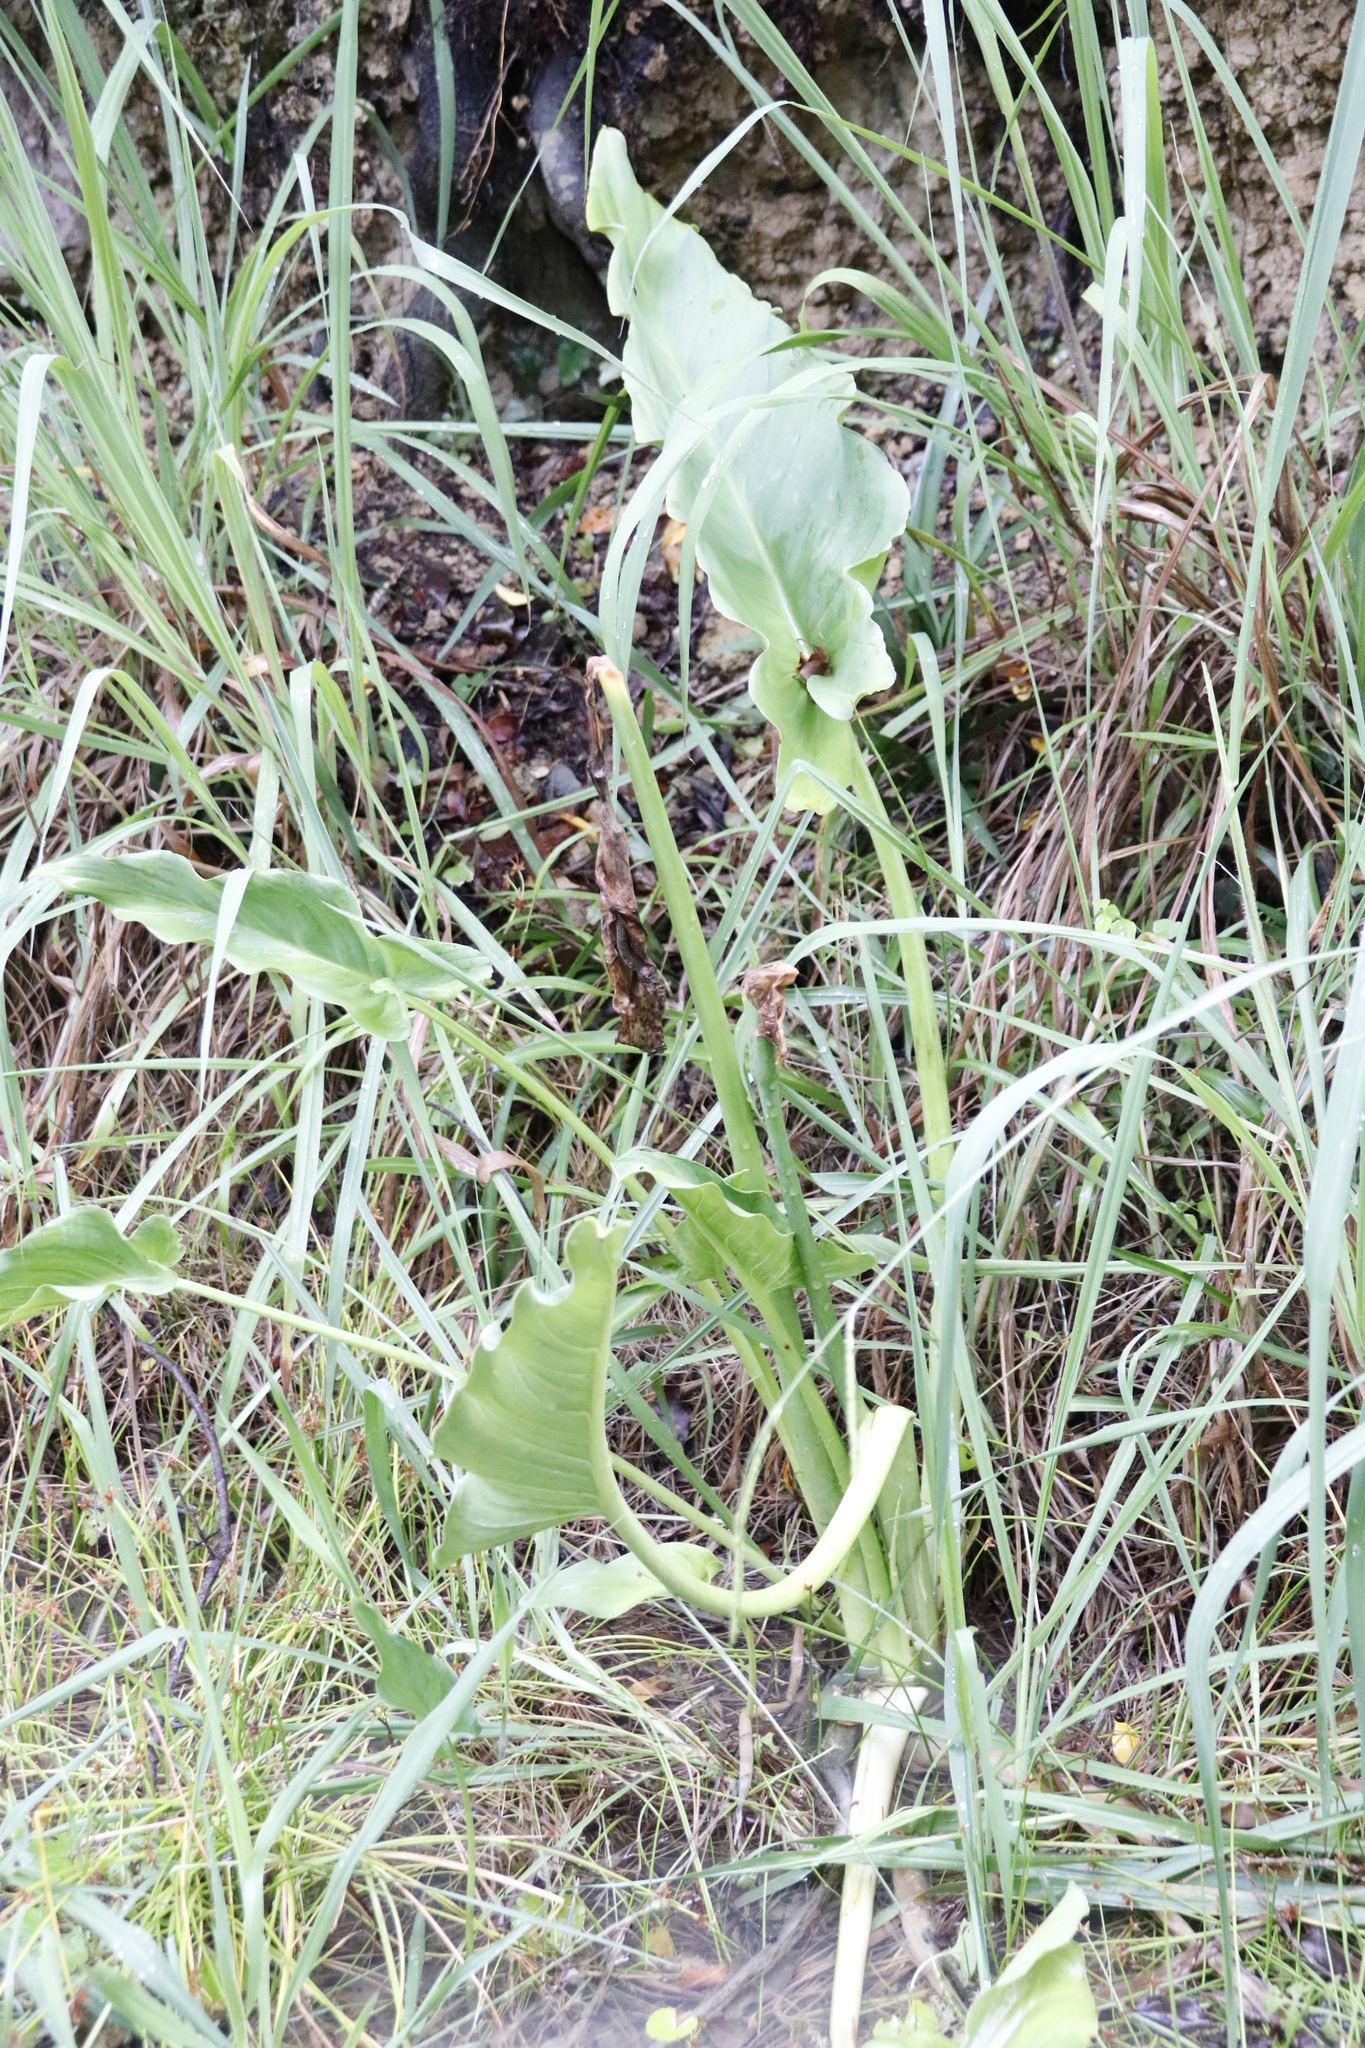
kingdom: Plantae
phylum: Tracheophyta
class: Liliopsida
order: Alismatales
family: Araceae
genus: Zantedeschia
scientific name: Zantedeschia aethiopica
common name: Altar-lily
